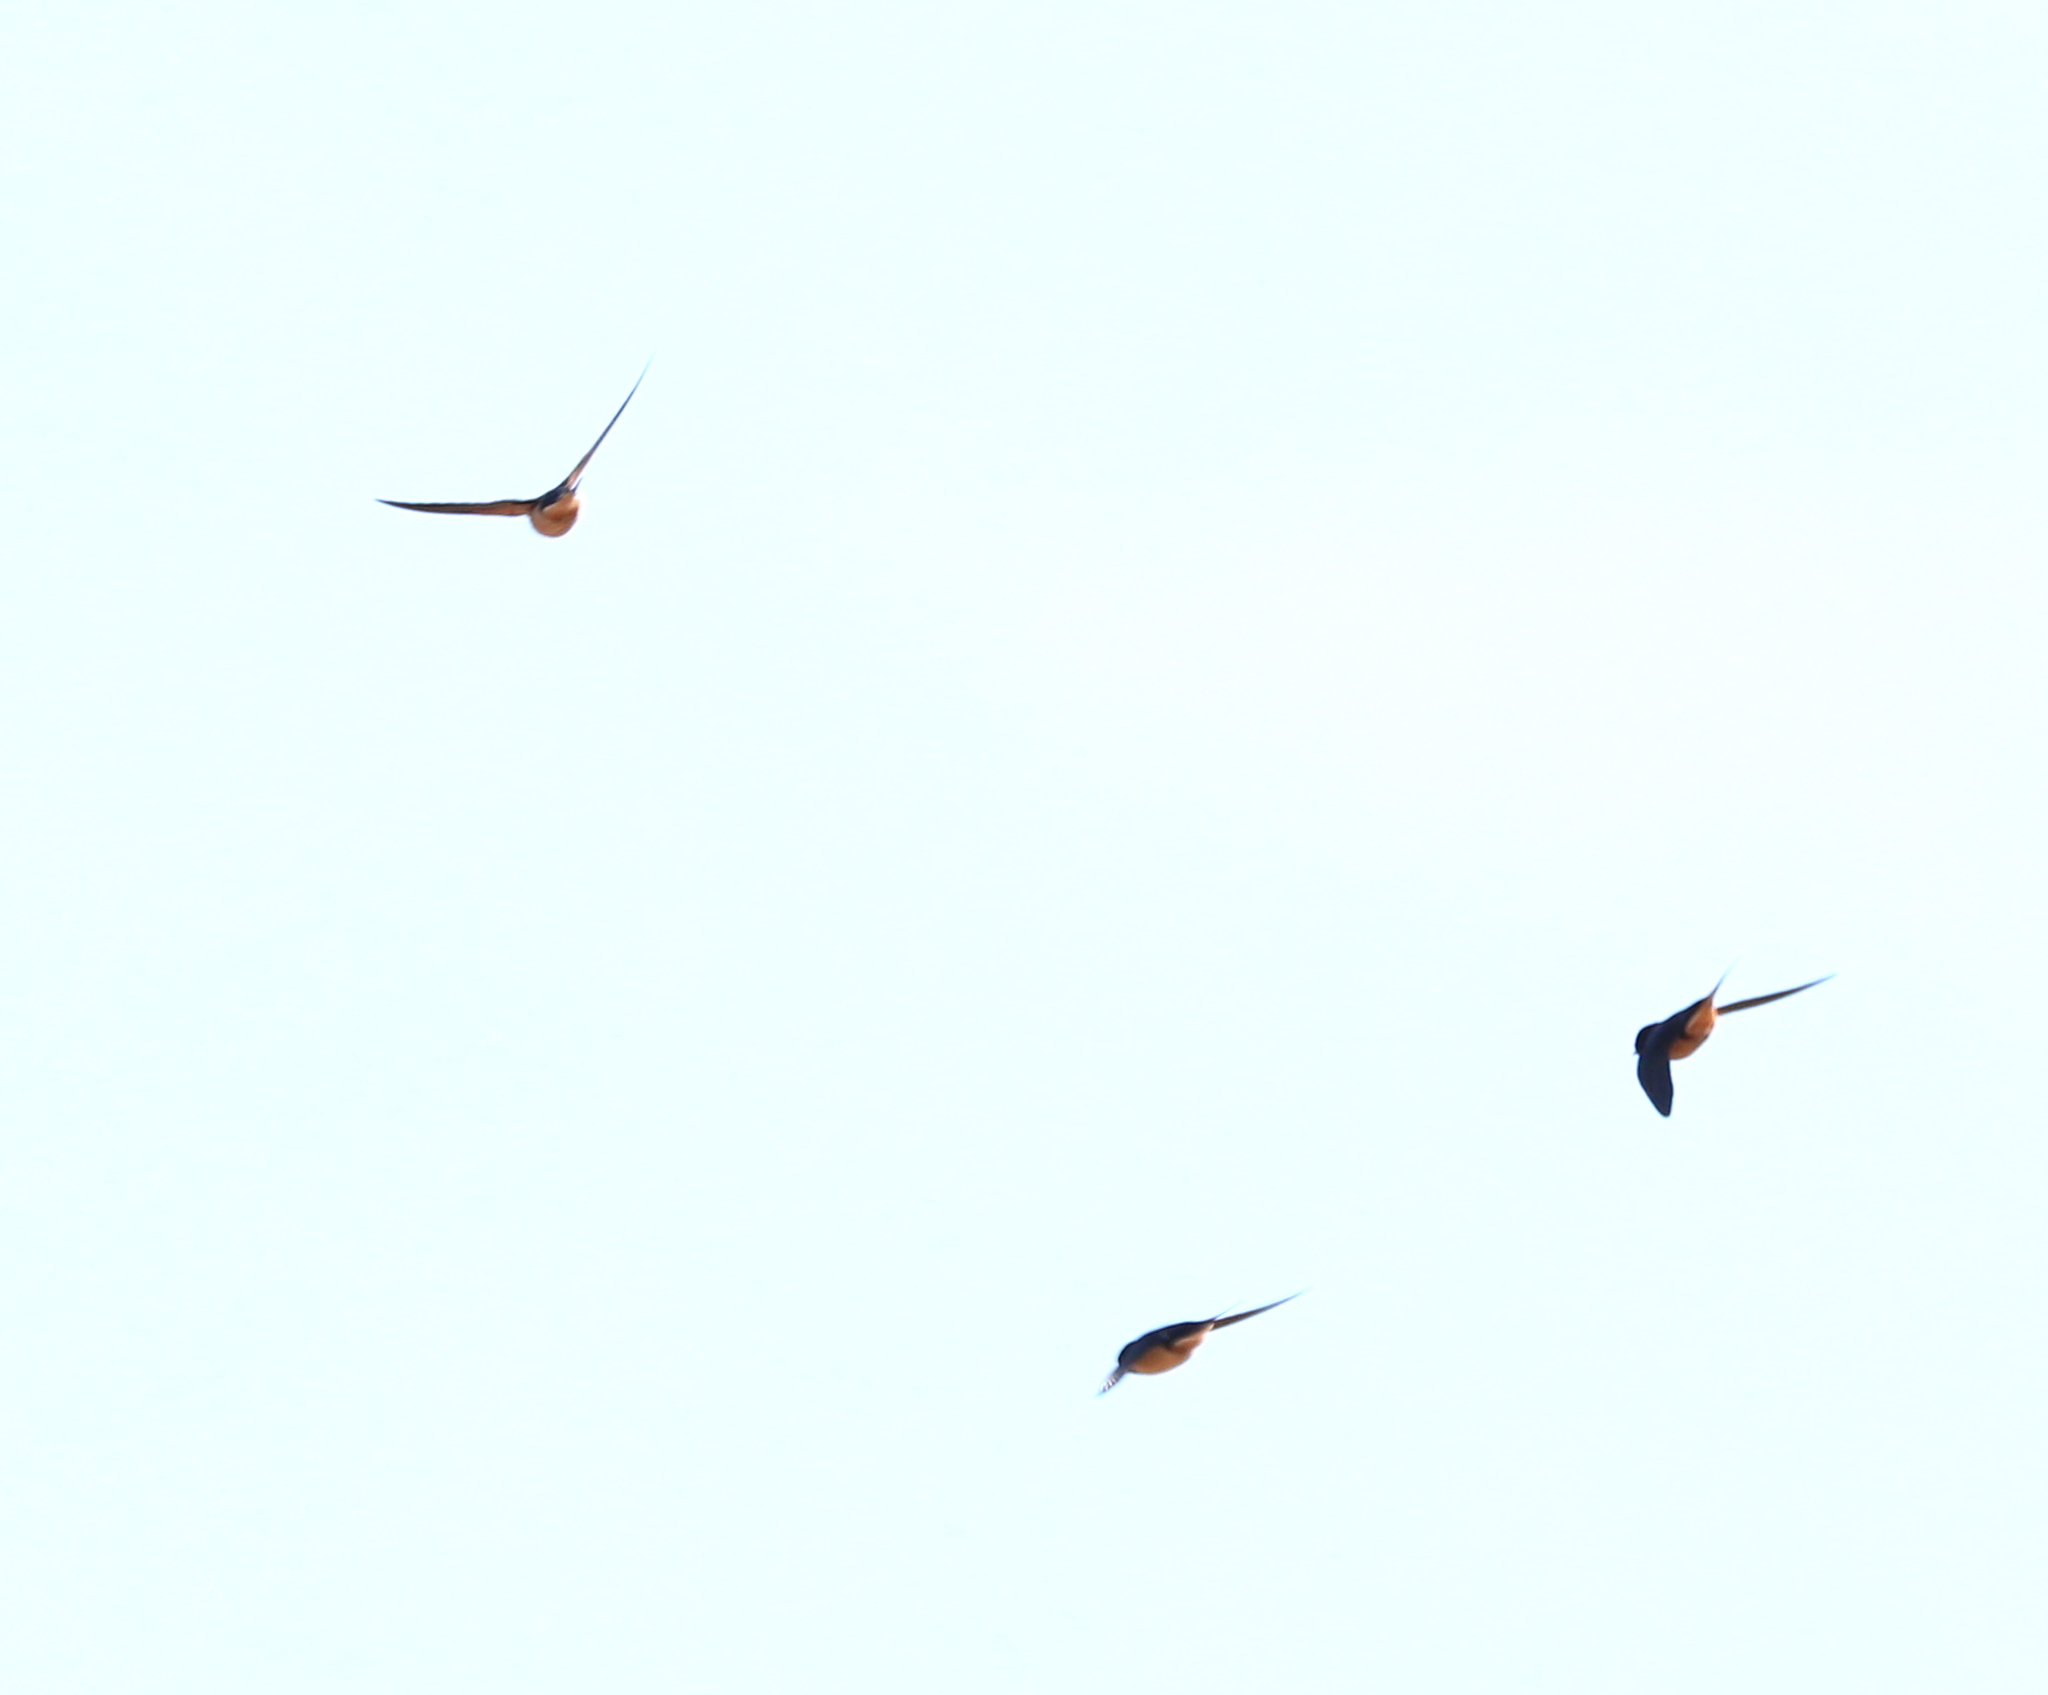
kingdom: Animalia
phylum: Chordata
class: Aves
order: Passeriformes
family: Hirundinidae
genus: Hirundo
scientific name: Hirundo rustica
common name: Barn swallow
